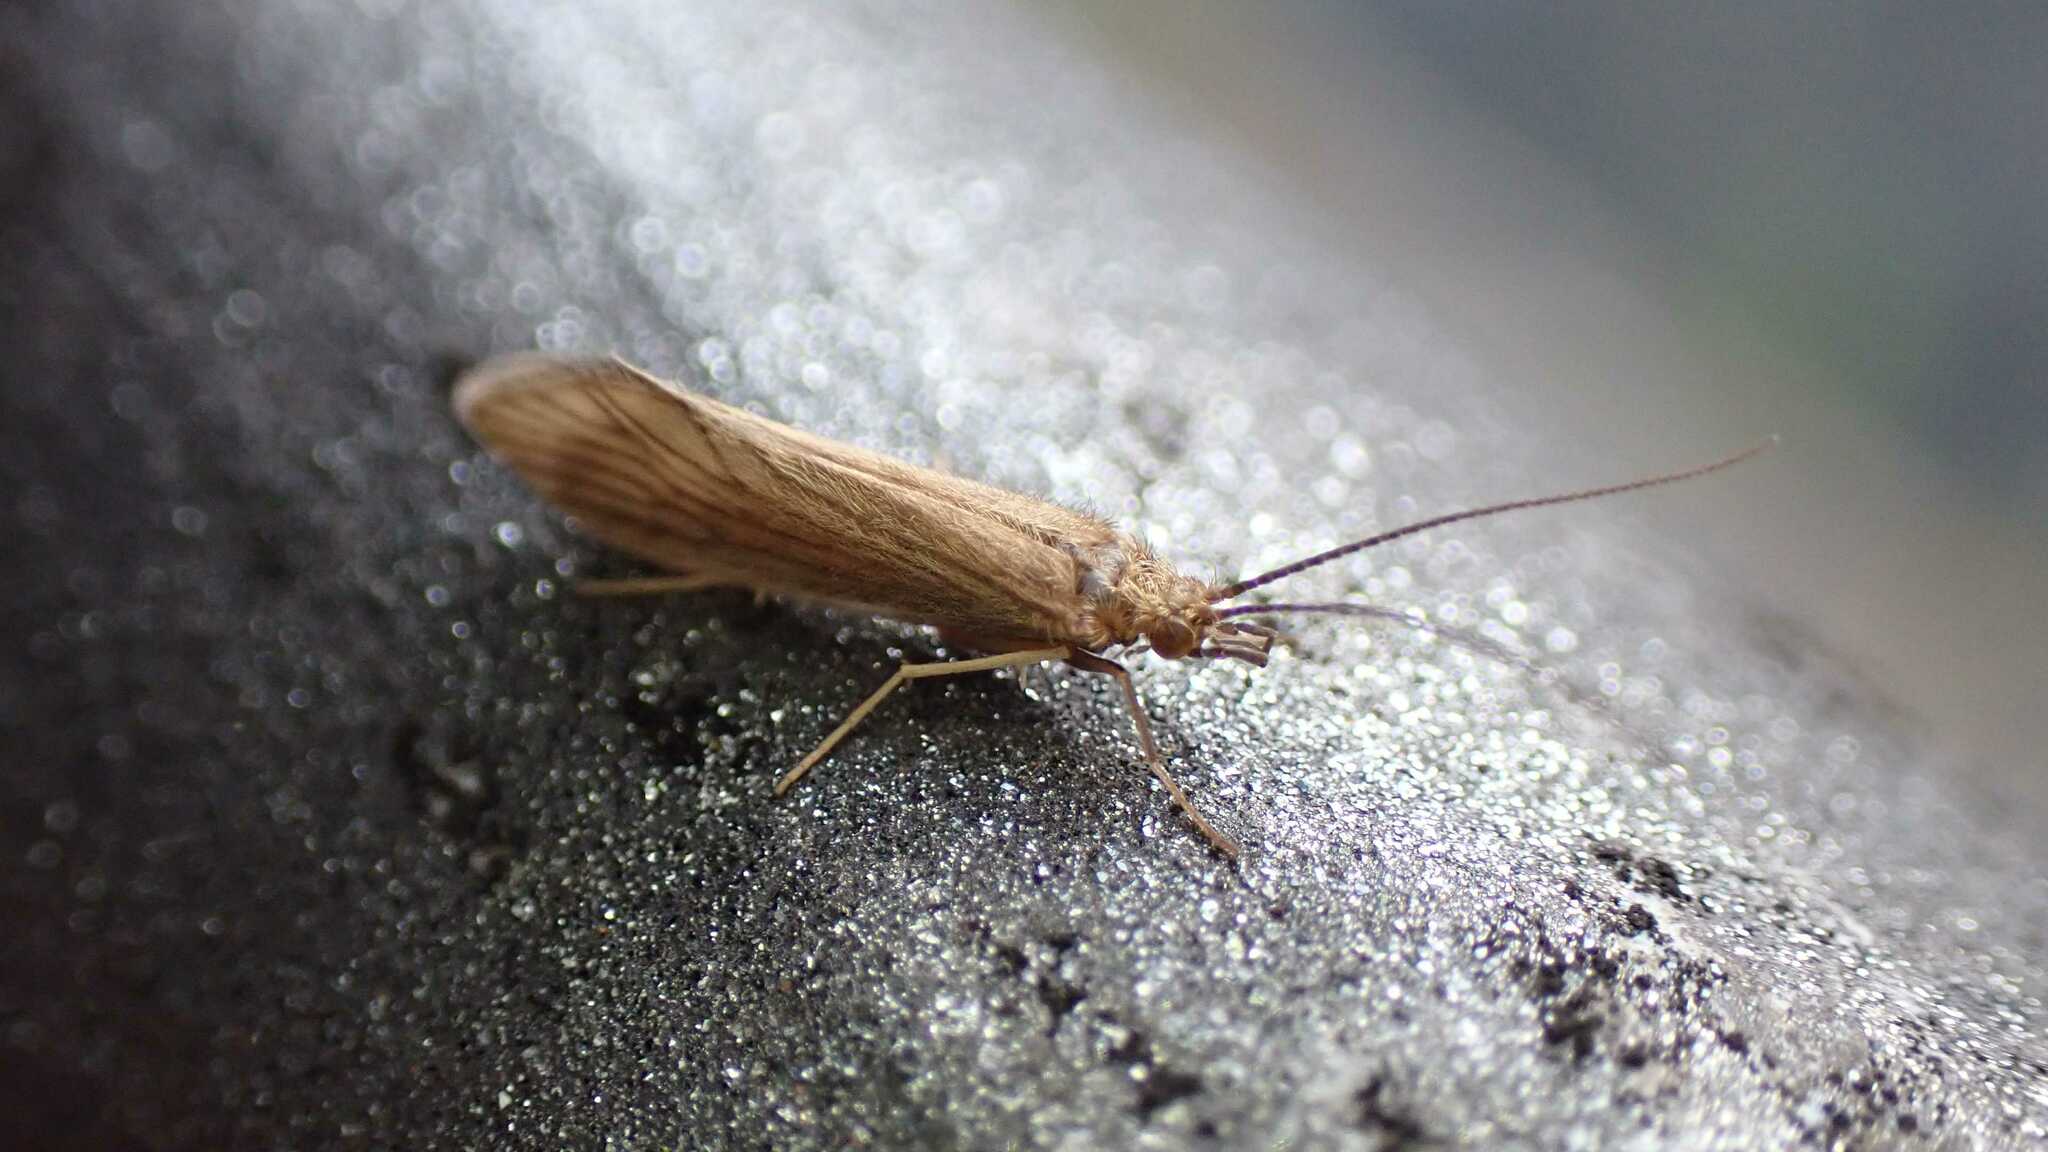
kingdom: Animalia
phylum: Arthropoda
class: Insecta
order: Trichoptera
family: Psychomyiidae
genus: Tinodes
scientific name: Tinodes waeneri
